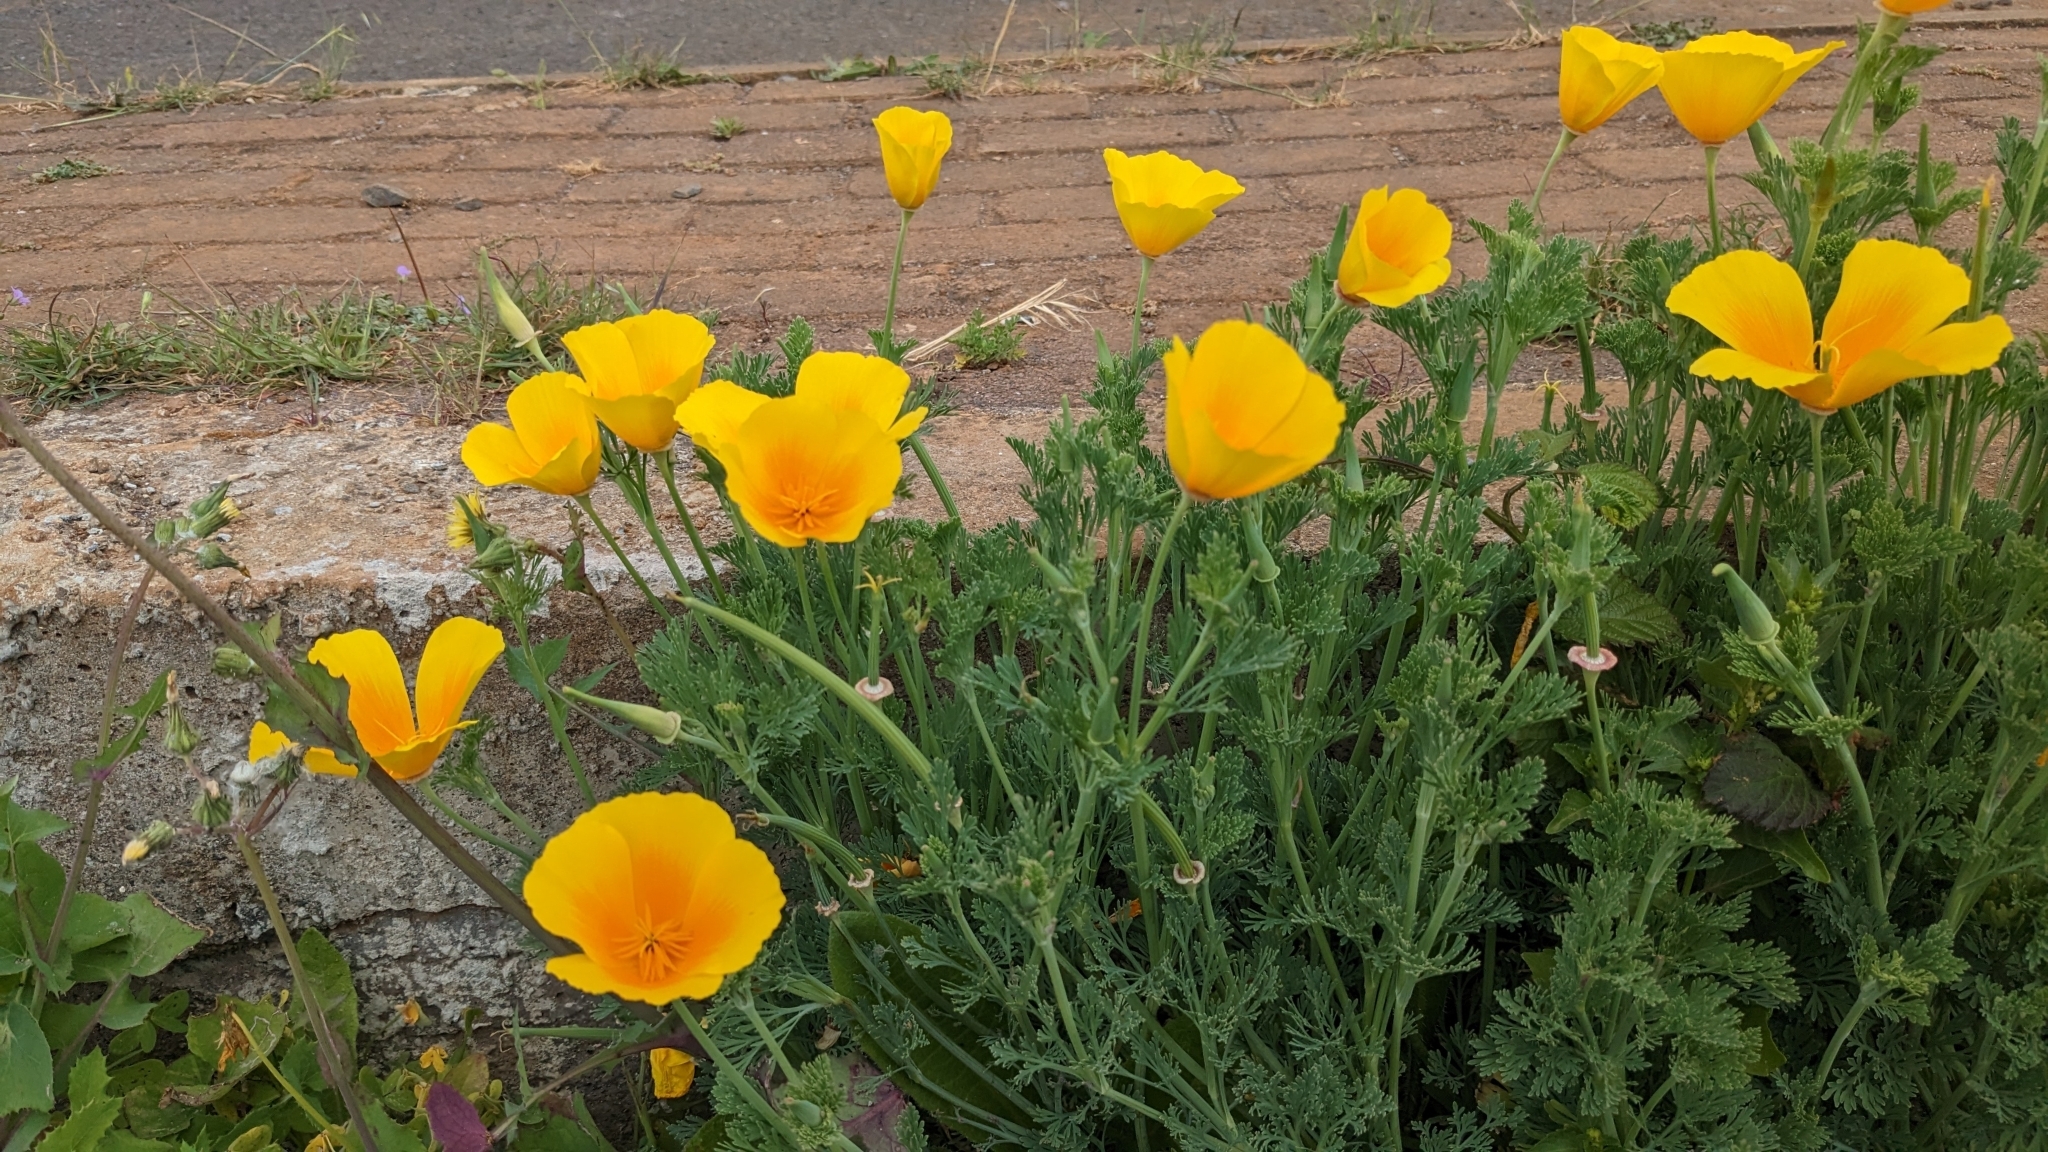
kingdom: Plantae
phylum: Tracheophyta
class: Magnoliopsida
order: Ranunculales
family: Papaveraceae
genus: Eschscholzia
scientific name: Eschscholzia californica
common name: California poppy
